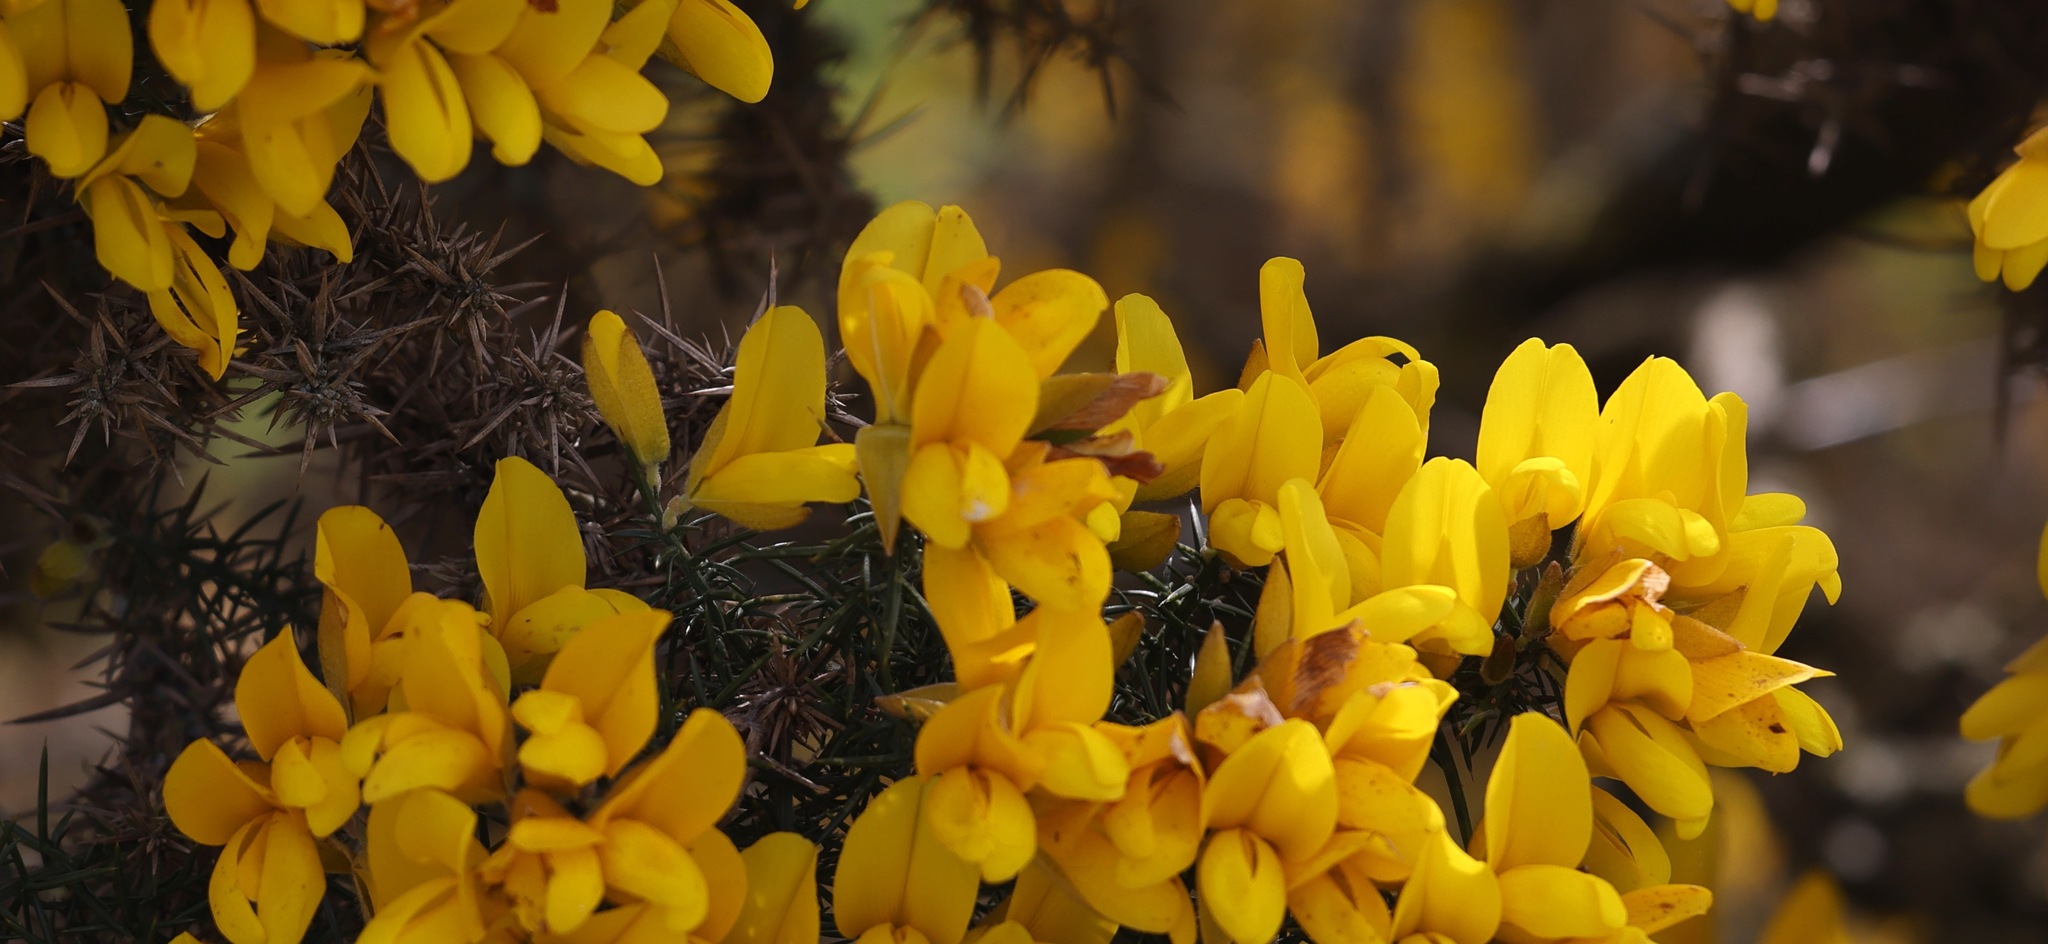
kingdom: Plantae
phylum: Tracheophyta
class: Magnoliopsida
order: Fabales
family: Fabaceae
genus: Ulex
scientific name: Ulex europaeus
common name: Common gorse
